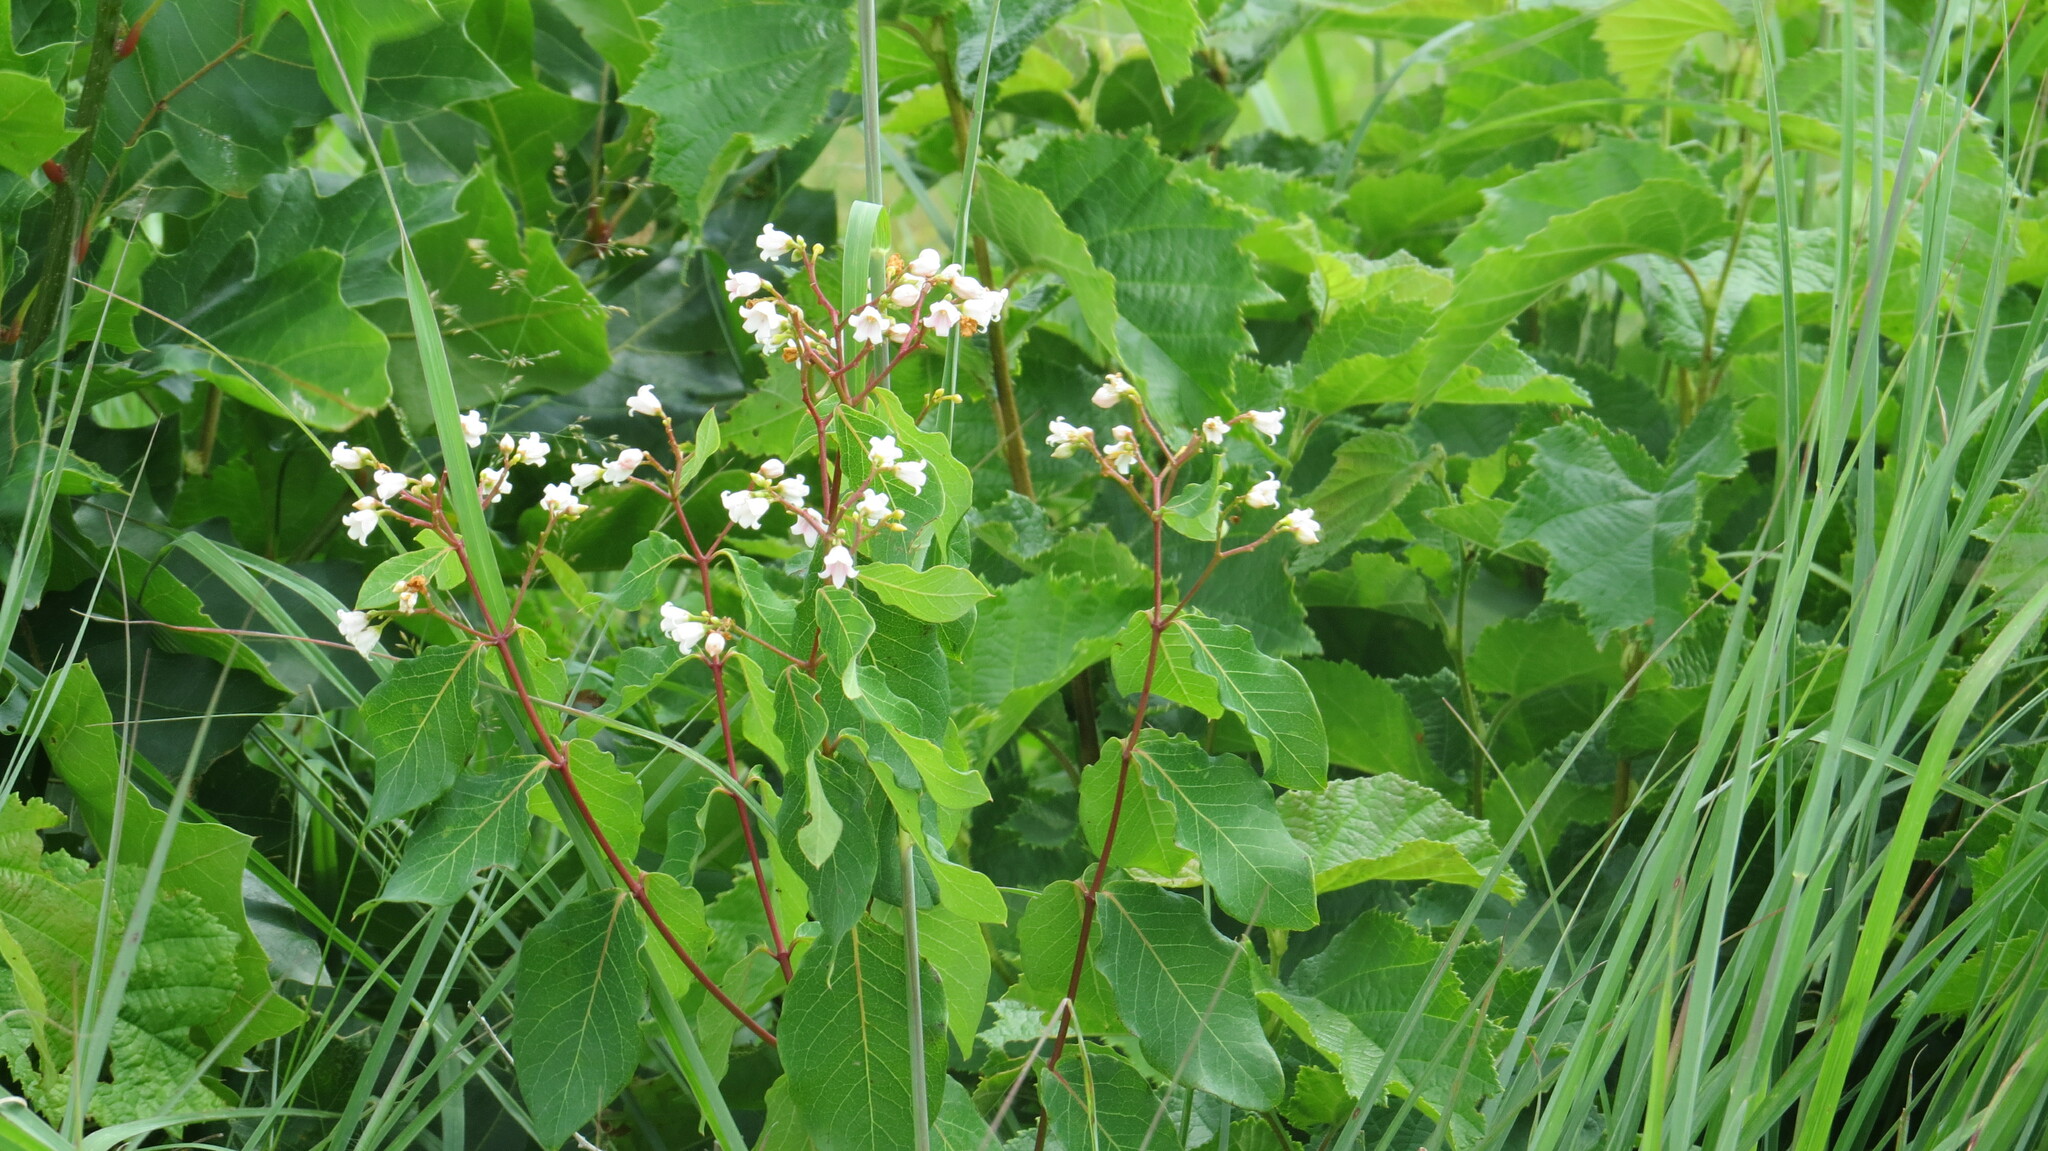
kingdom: Plantae
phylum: Tracheophyta
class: Magnoliopsida
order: Gentianales
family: Apocynaceae
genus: Apocynum
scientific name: Apocynum androsaemifolium
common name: Spreading dogbane
